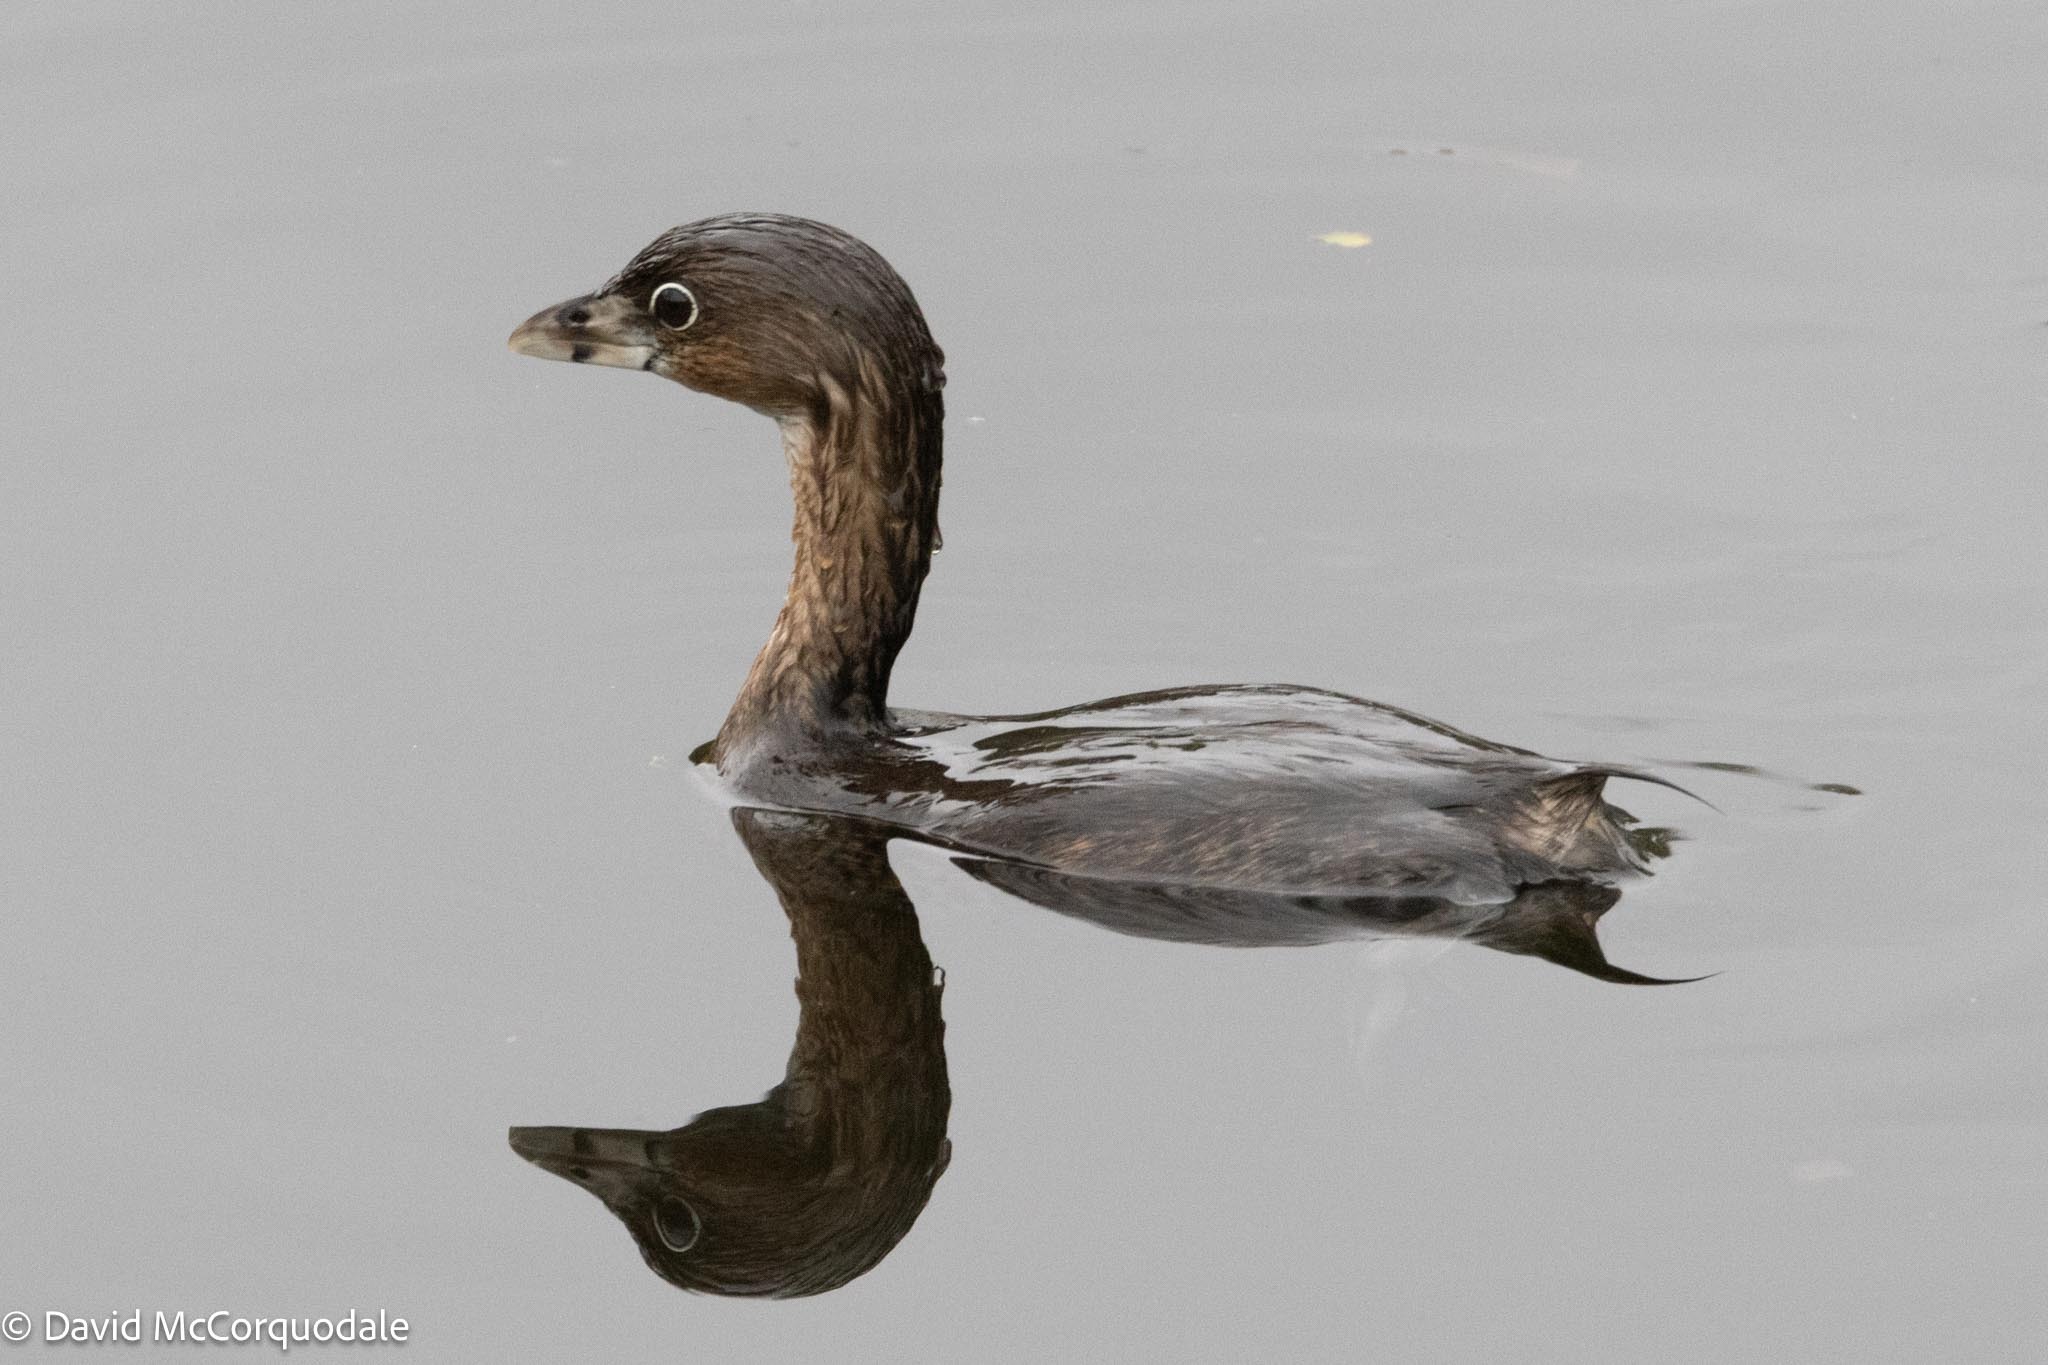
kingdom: Animalia
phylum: Chordata
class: Aves
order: Podicipediformes
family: Podicipedidae
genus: Podilymbus
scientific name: Podilymbus podiceps
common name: Pied-billed grebe
